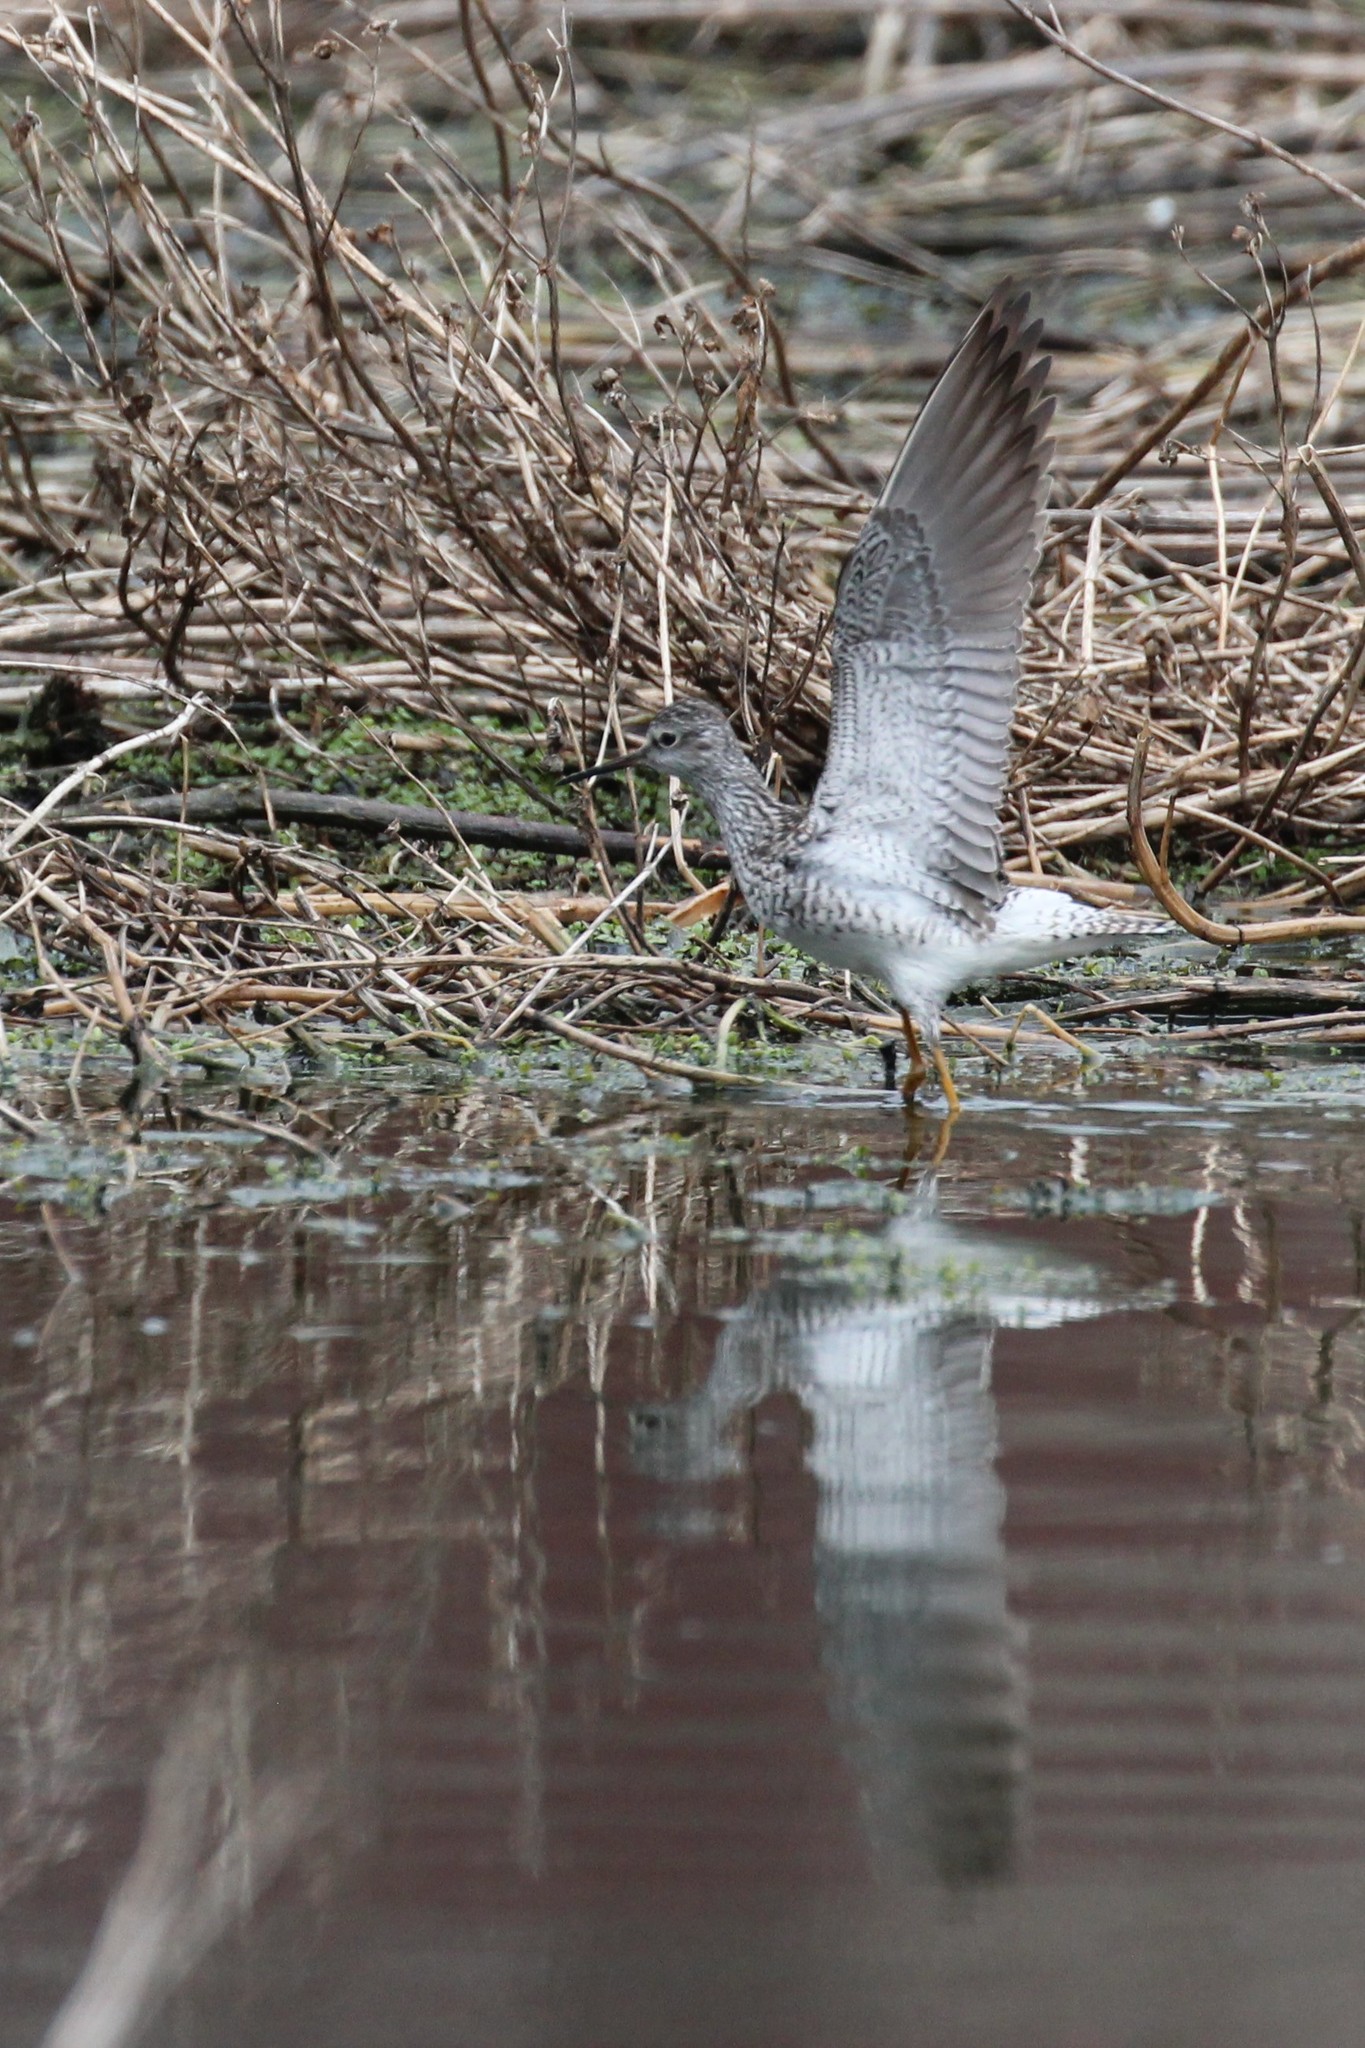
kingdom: Animalia
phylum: Chordata
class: Aves
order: Charadriiformes
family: Scolopacidae
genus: Tringa
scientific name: Tringa flavipes
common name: Lesser yellowlegs
